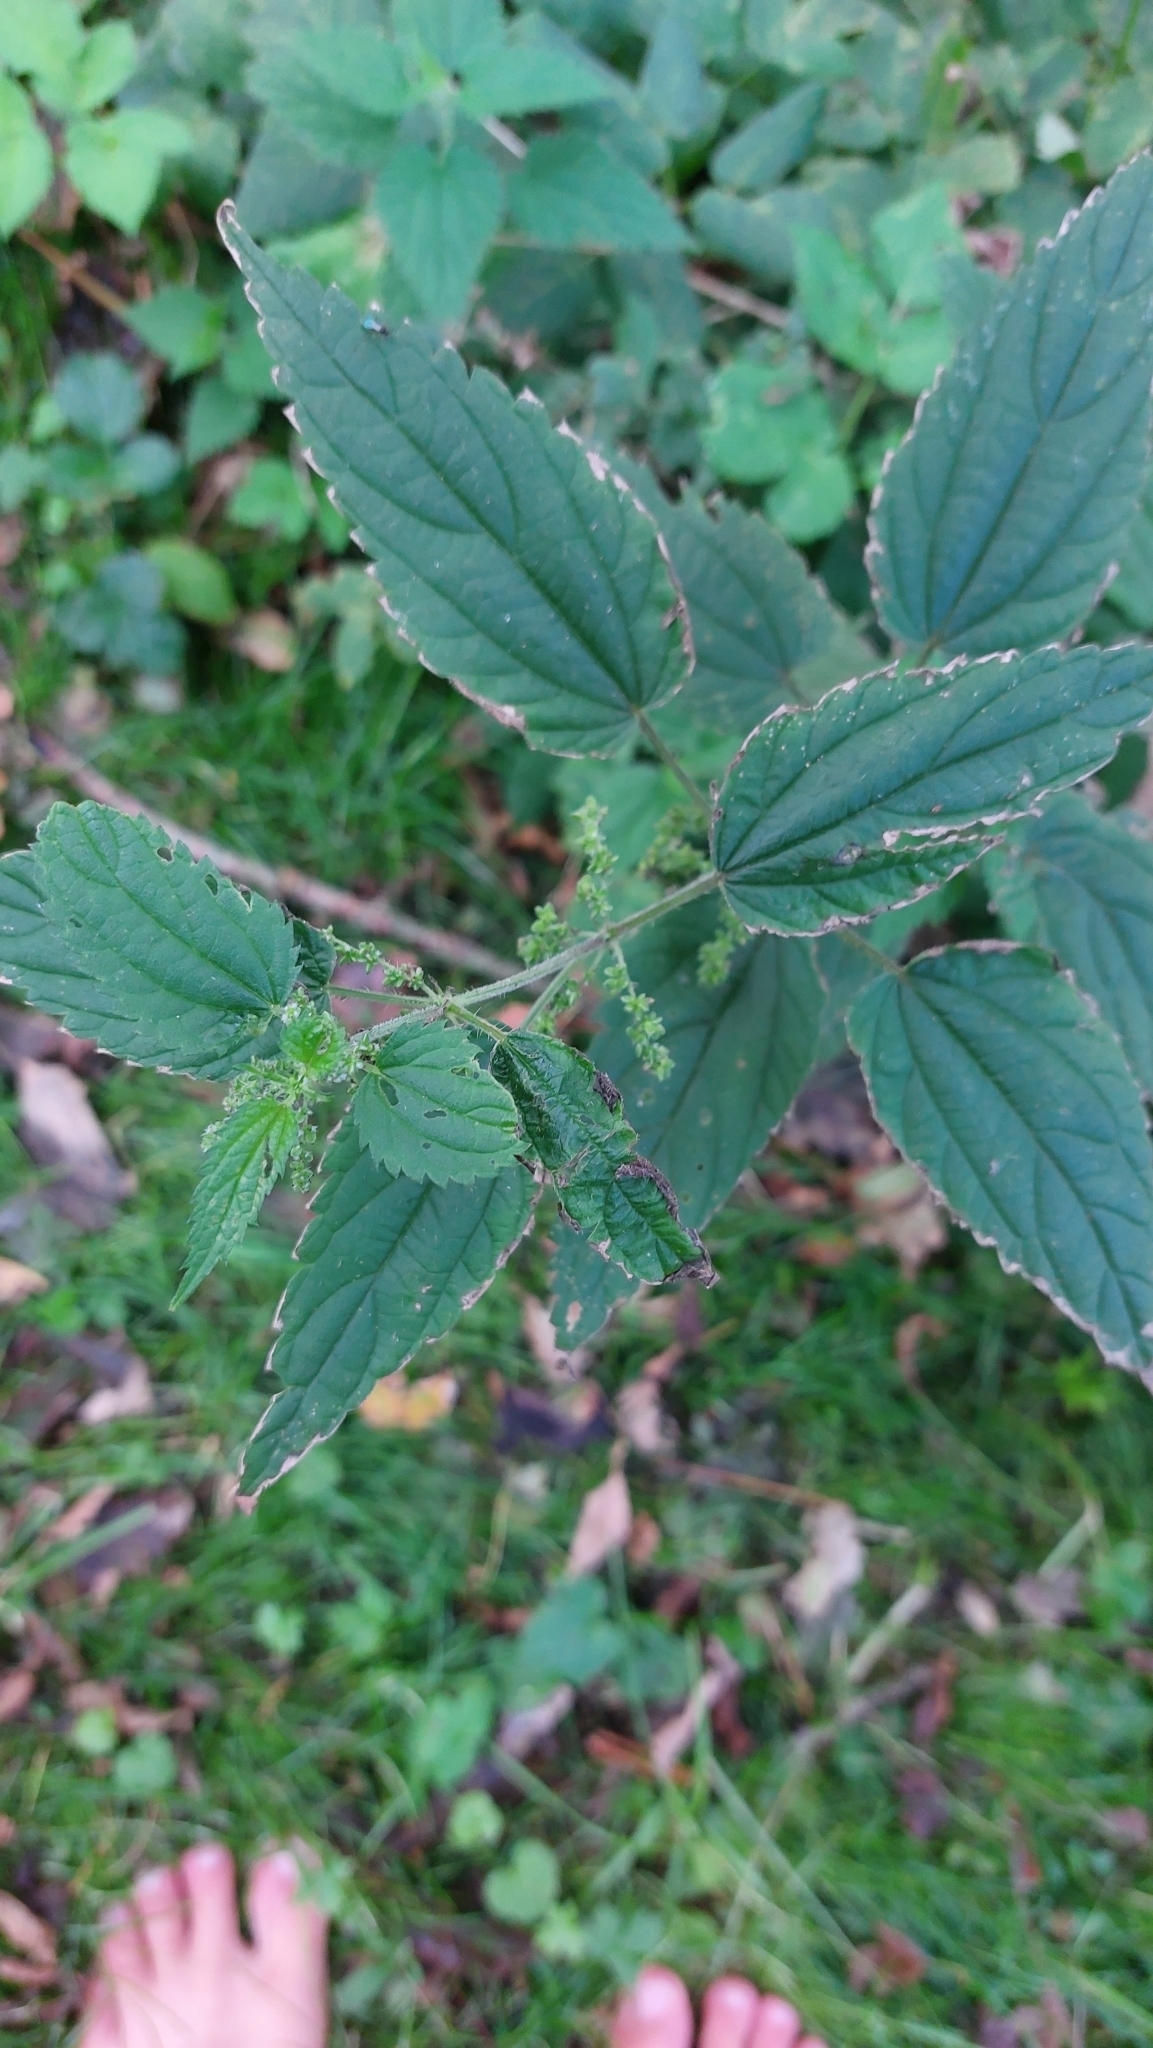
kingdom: Plantae
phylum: Tracheophyta
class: Magnoliopsida
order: Rosales
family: Urticaceae
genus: Urtica
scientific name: Urtica dioica
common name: Common nettle
